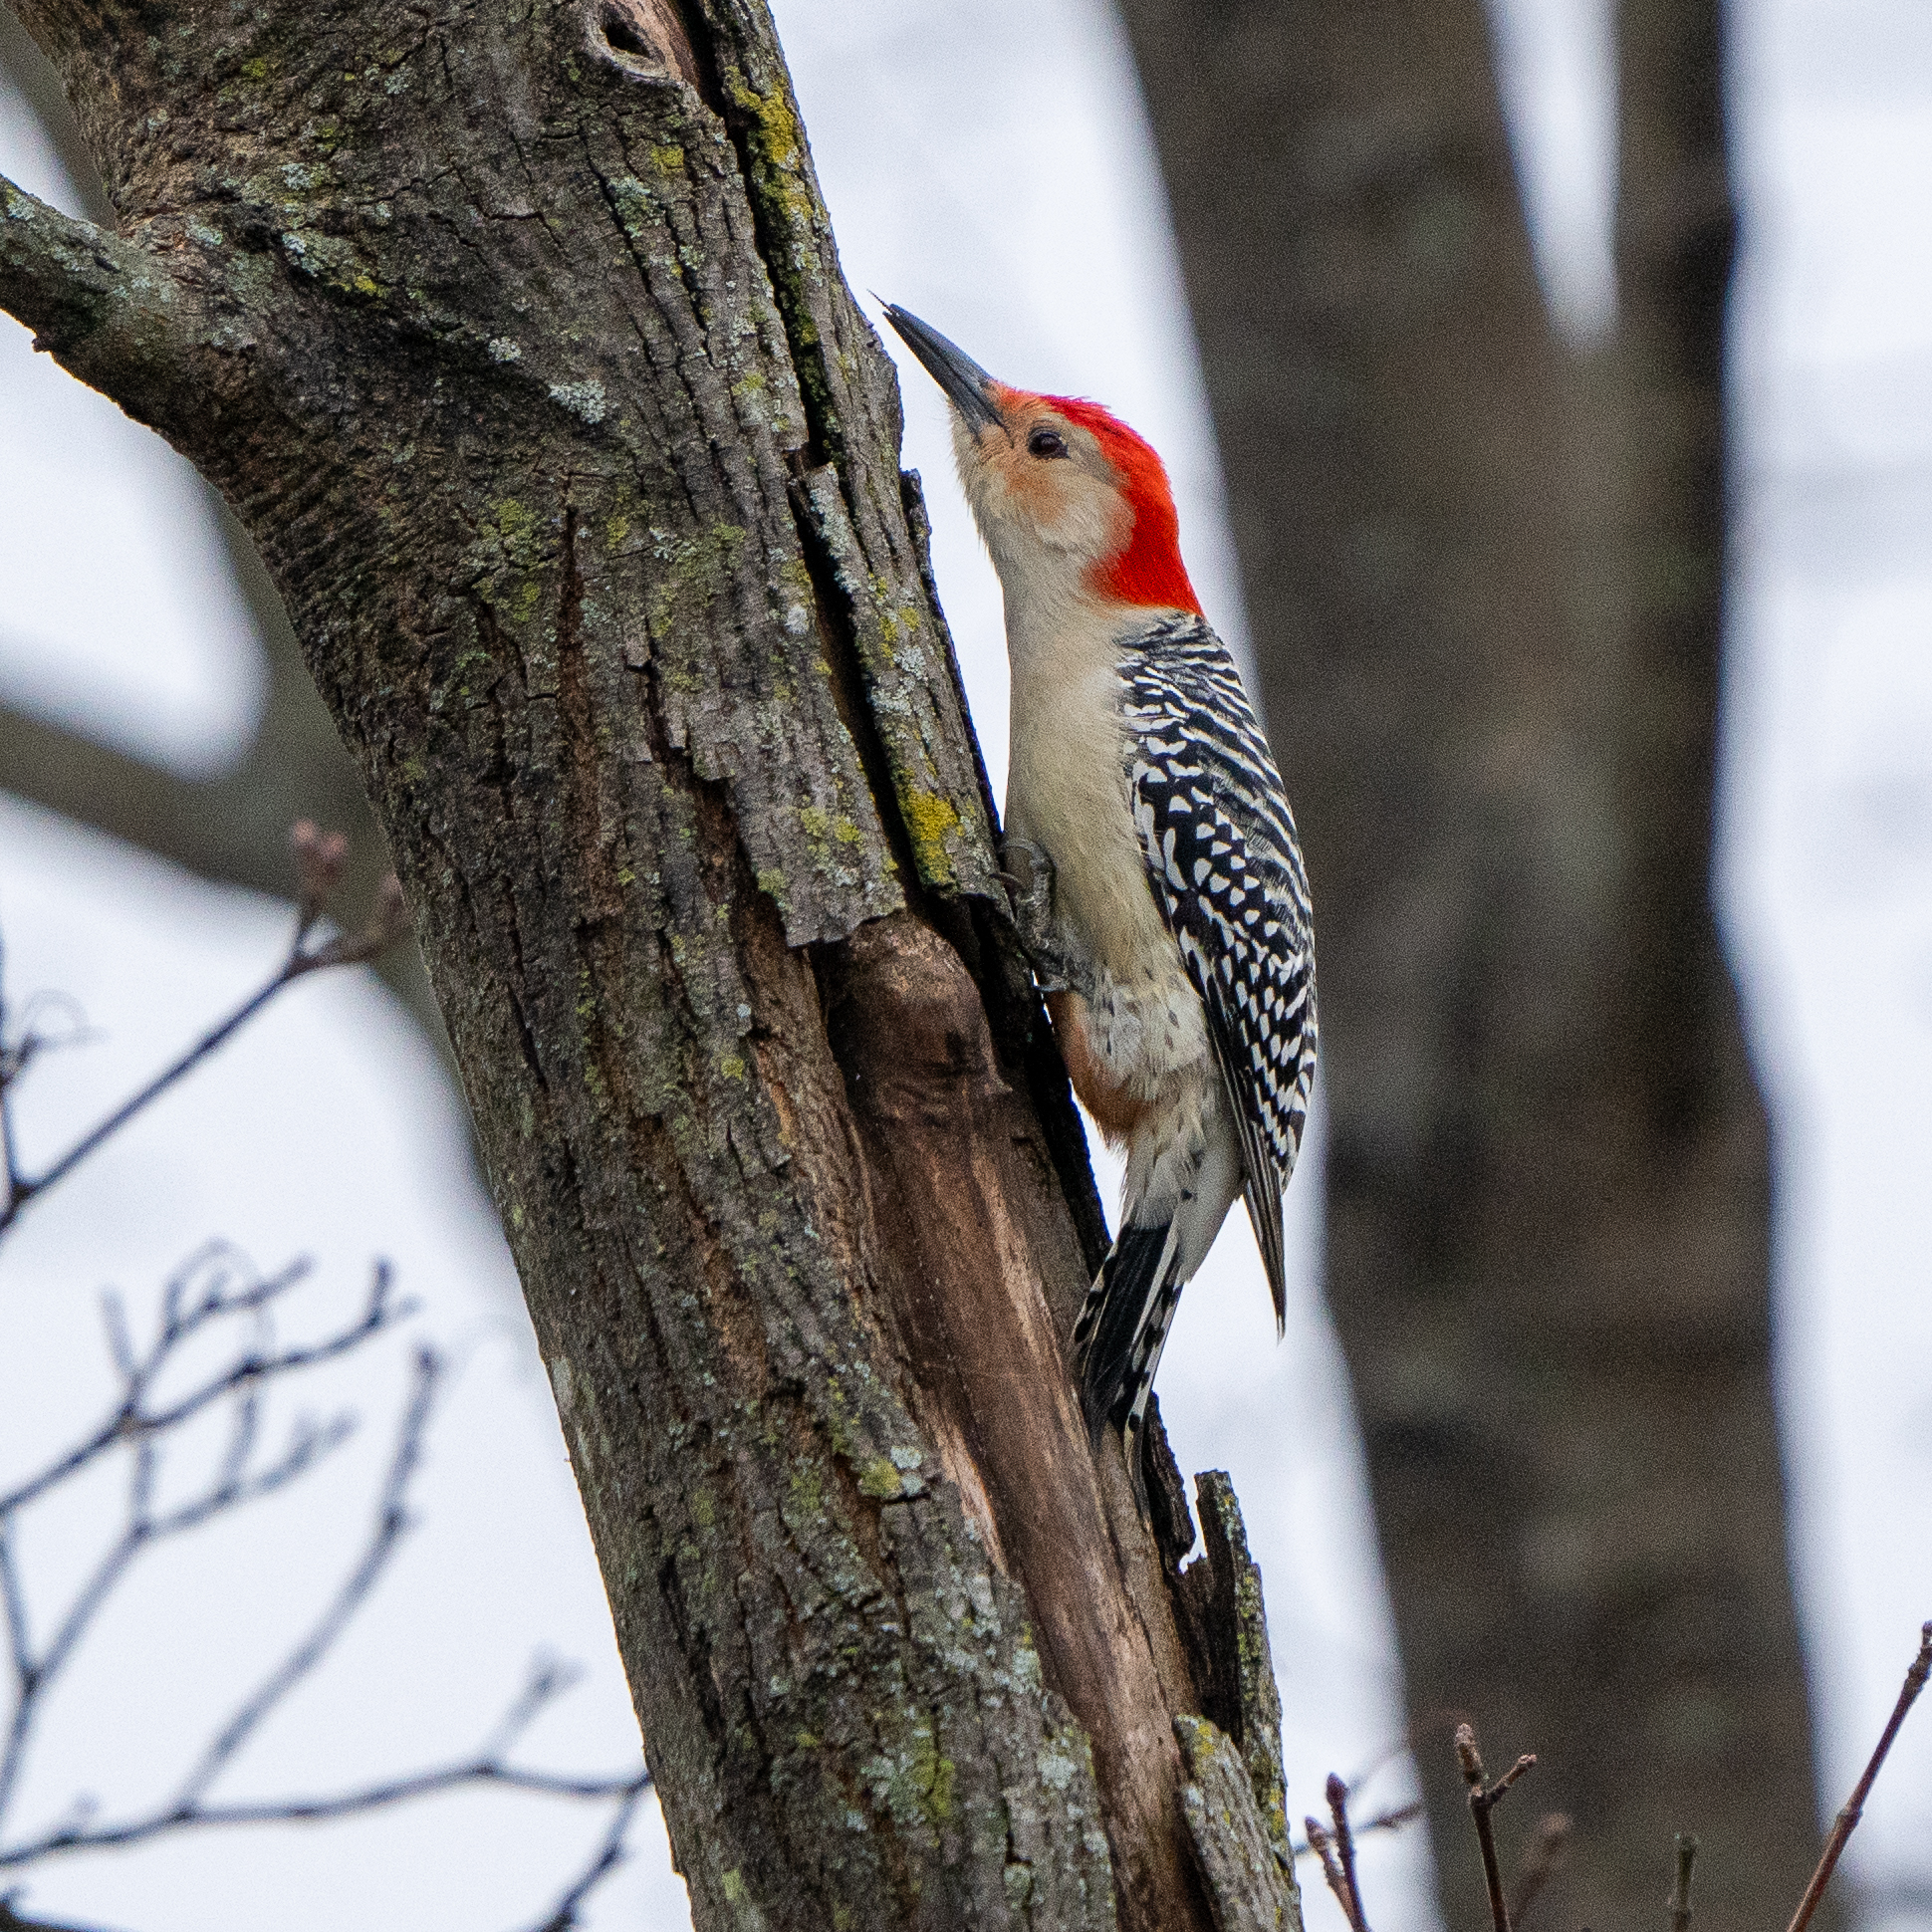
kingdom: Animalia
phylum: Chordata
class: Aves
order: Piciformes
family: Picidae
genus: Melanerpes
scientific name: Melanerpes carolinus
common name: Red-bellied woodpecker
